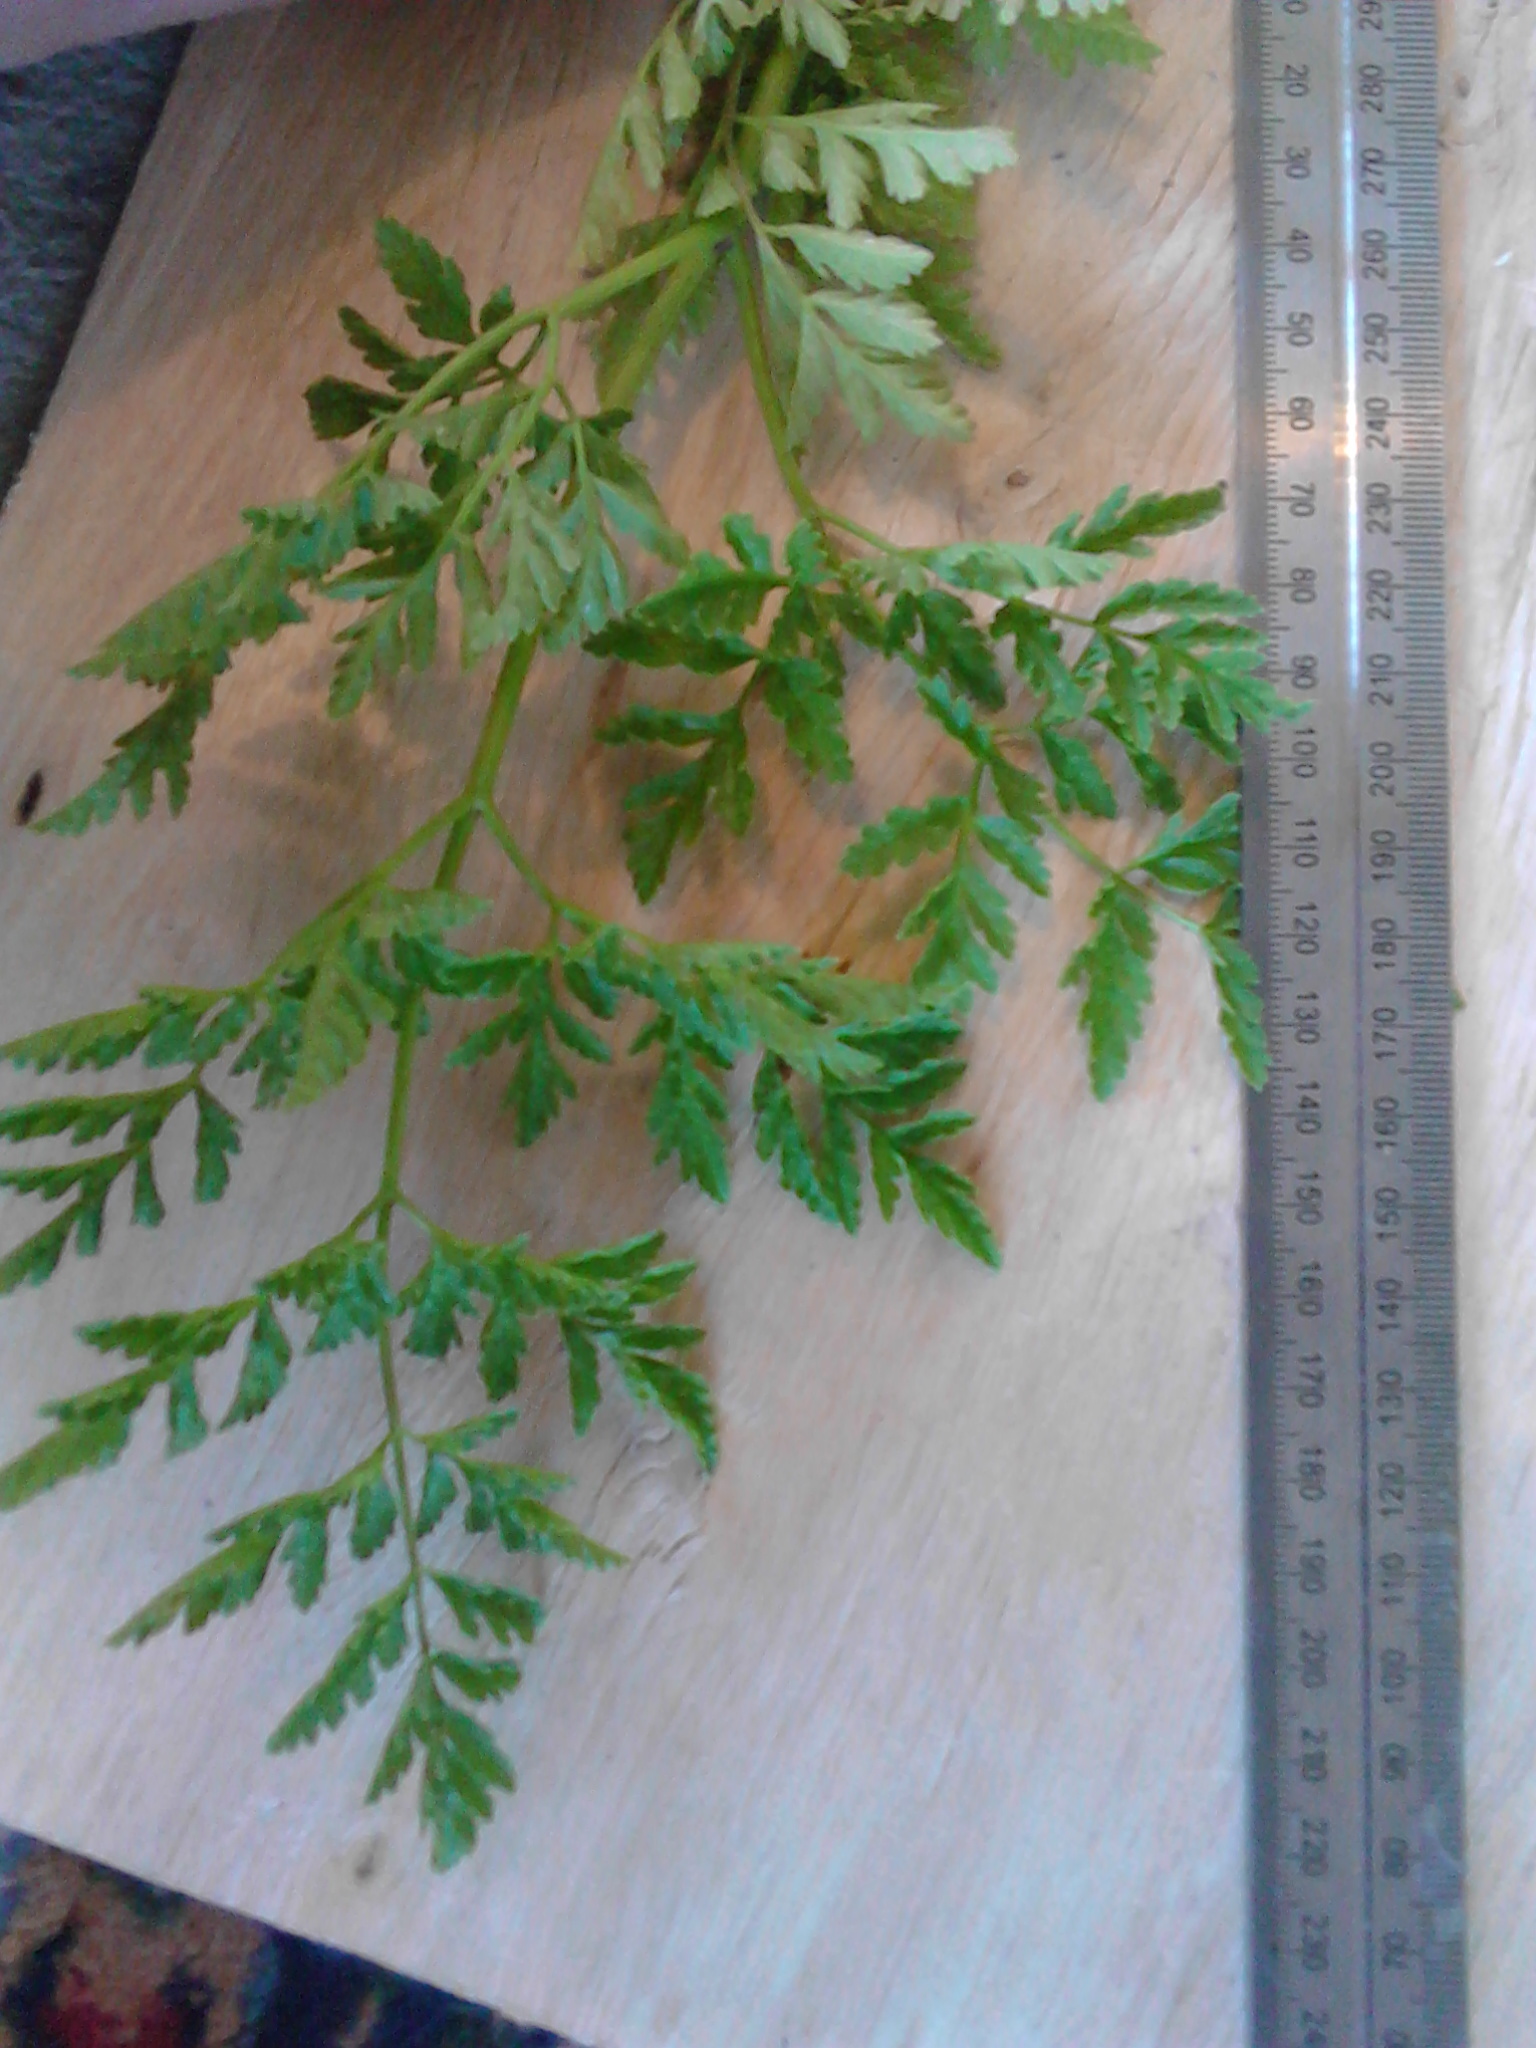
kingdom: Plantae
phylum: Tracheophyta
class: Magnoliopsida
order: Apiales
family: Apiaceae
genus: Conium
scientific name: Conium maculatum
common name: Hemlock
